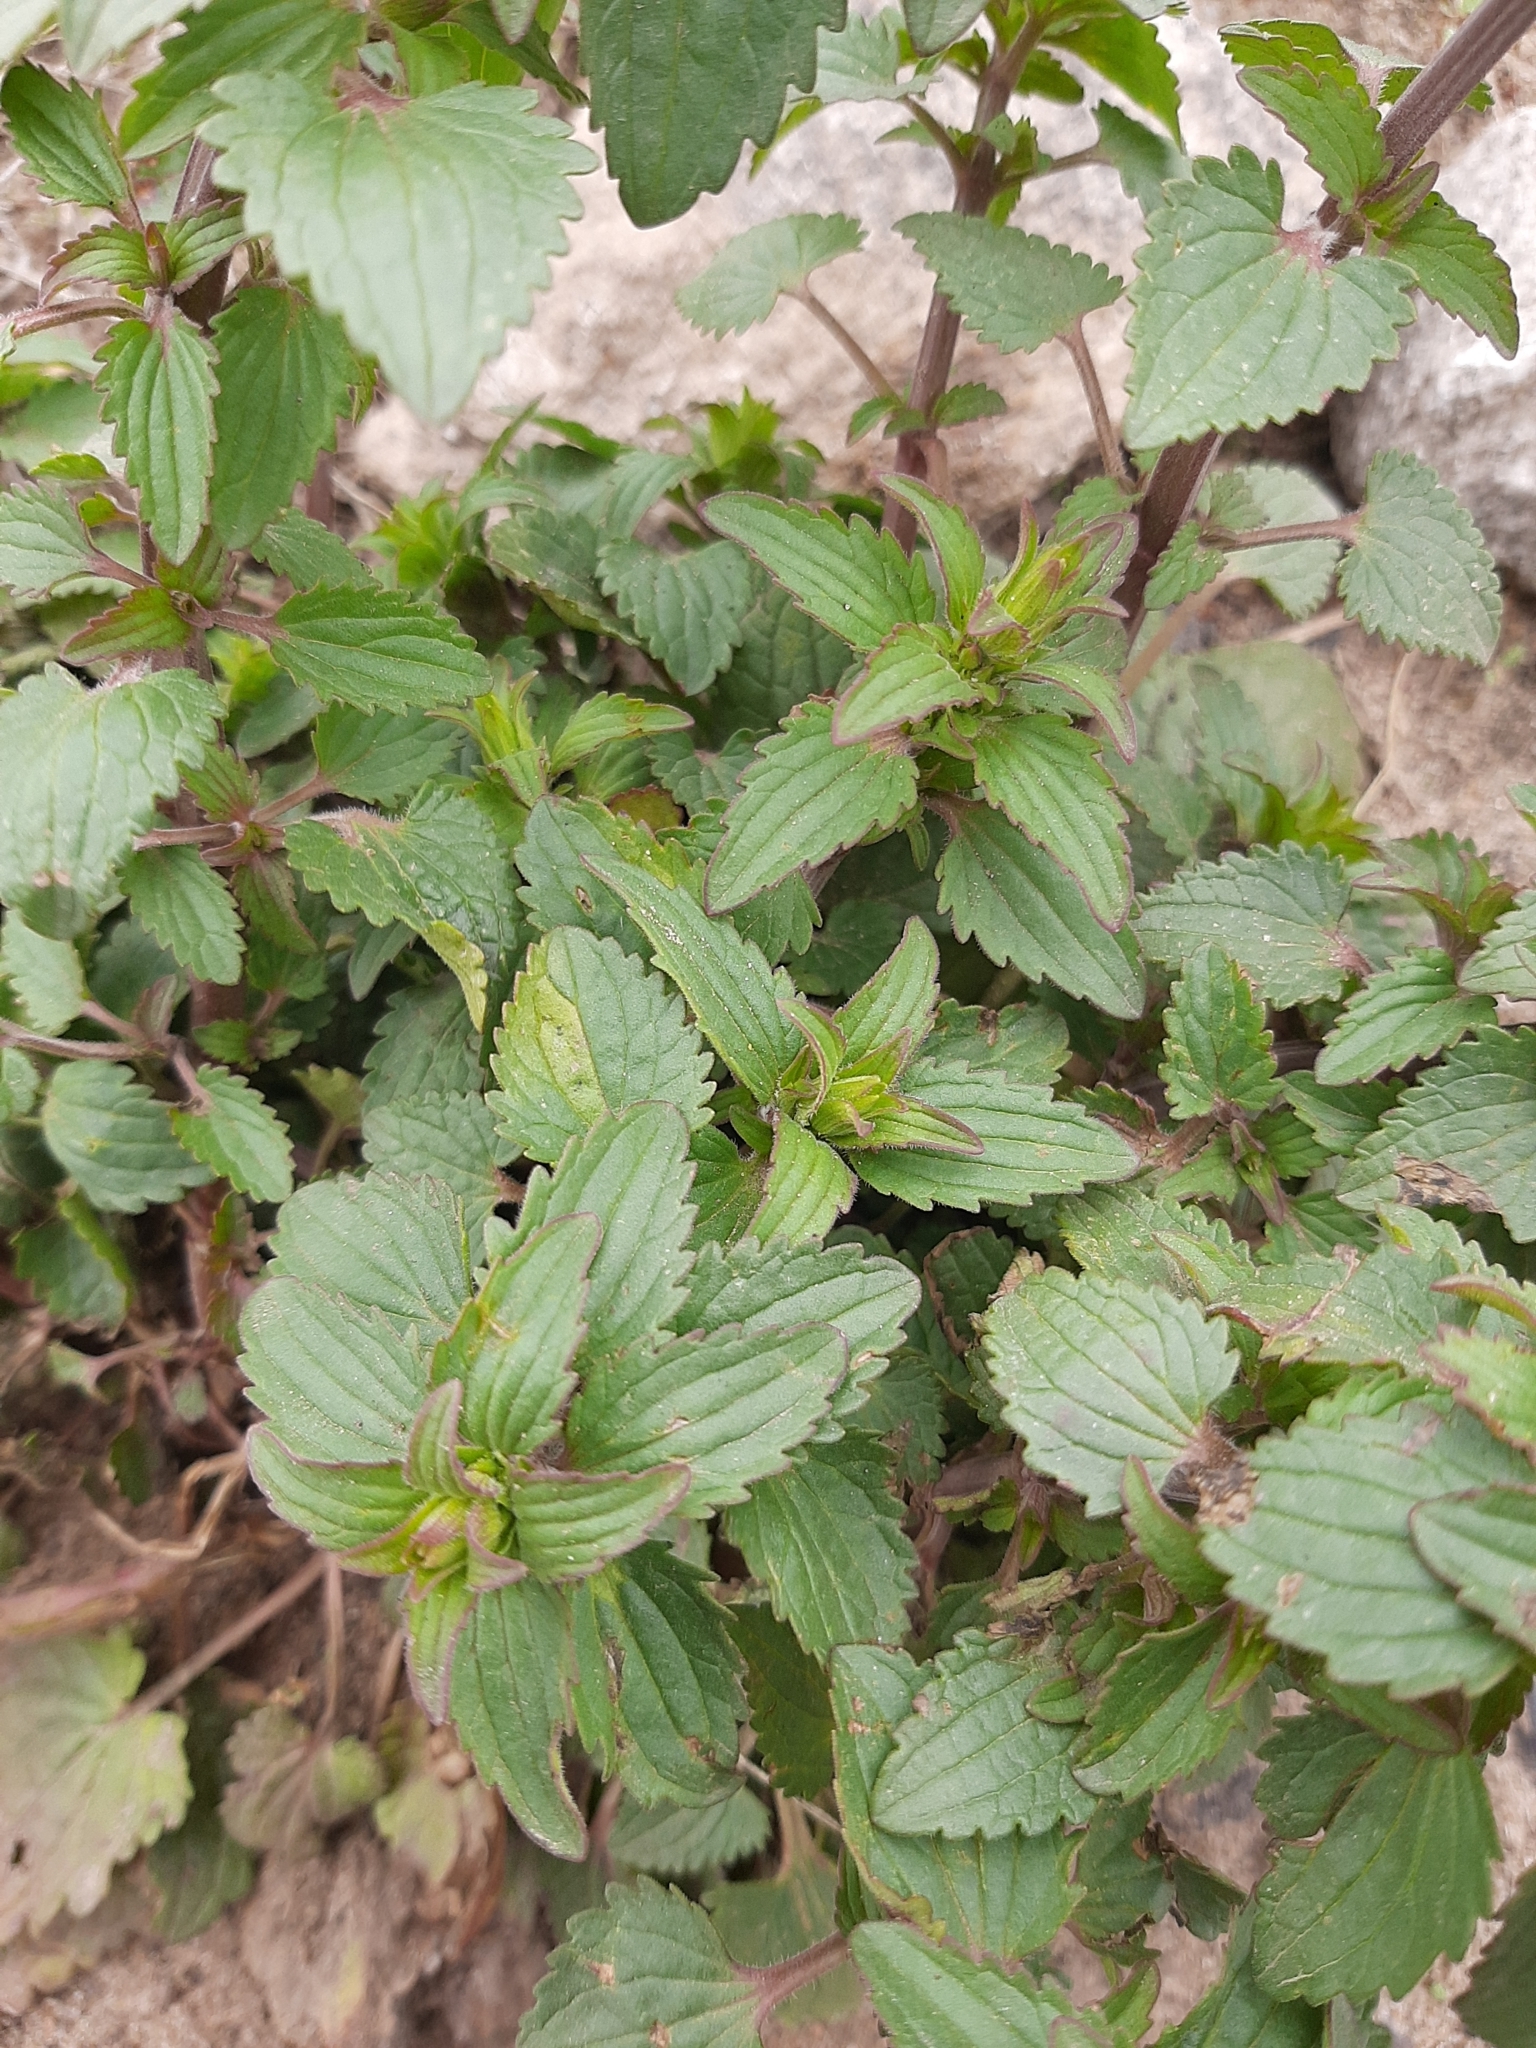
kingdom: Plantae
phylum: Tracheophyta
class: Magnoliopsida
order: Lamiales
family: Lamiaceae
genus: Dracocephalum
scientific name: Dracocephalum thymiflorum
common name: Thymeleaf dragonhead
